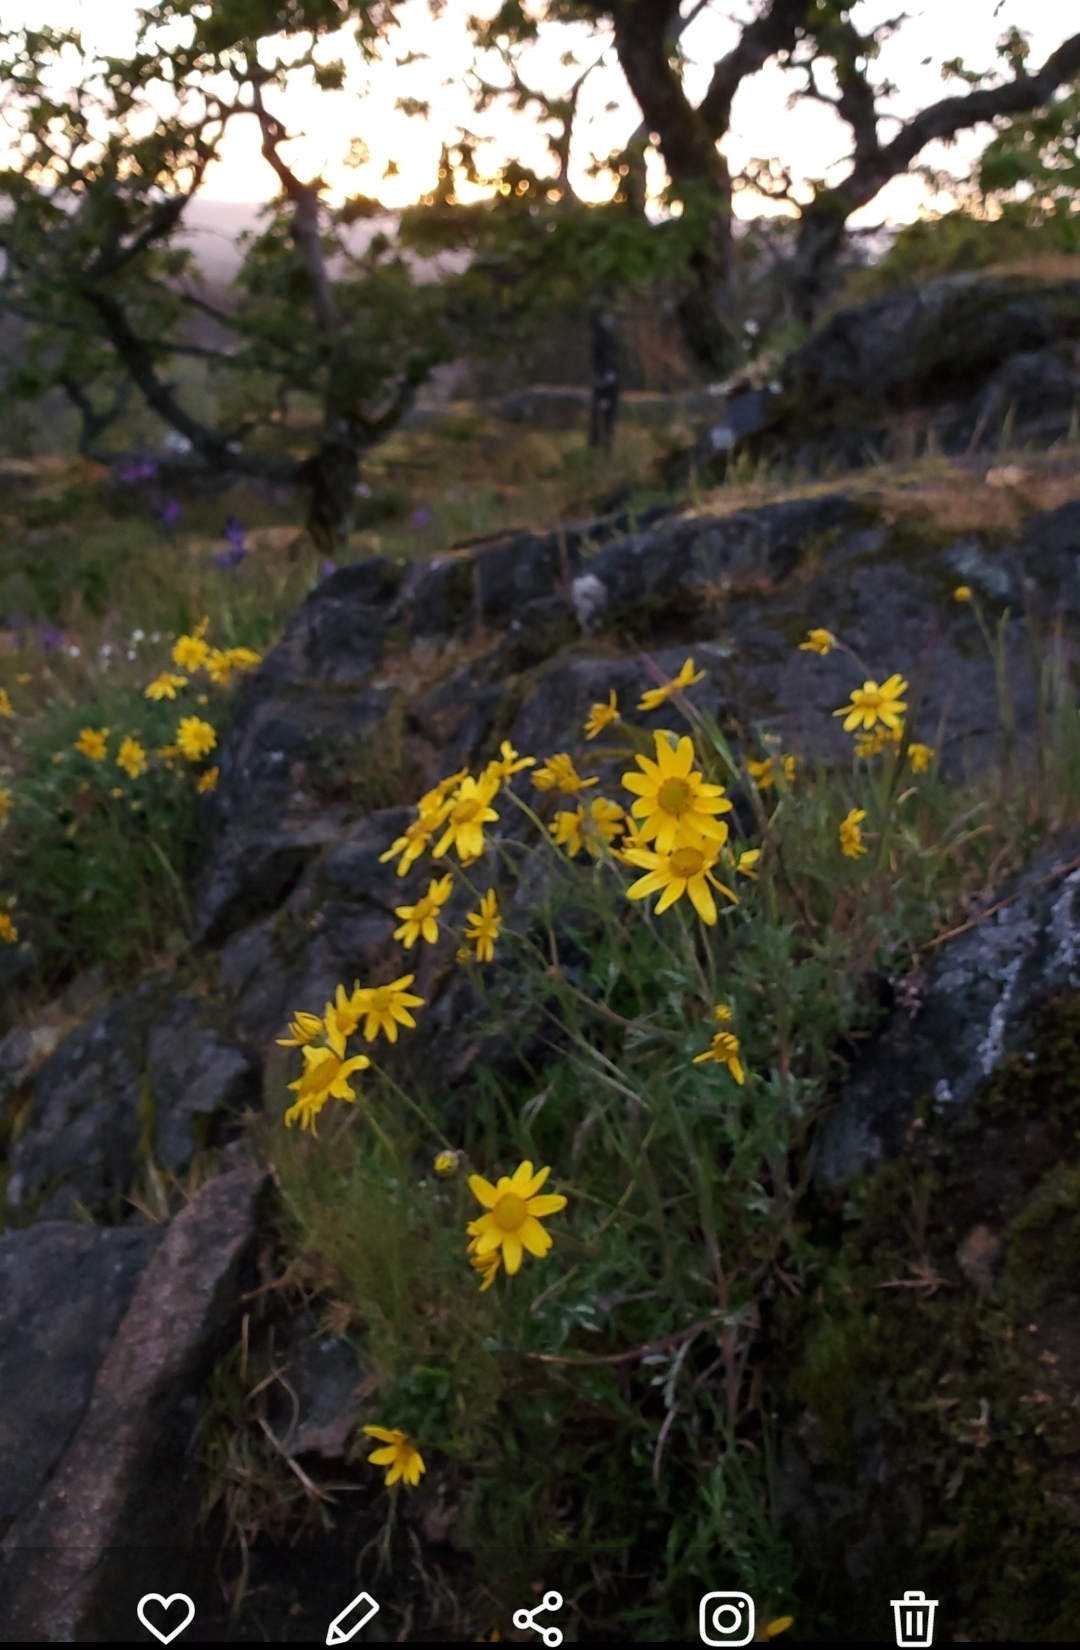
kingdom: Plantae
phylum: Tracheophyta
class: Magnoliopsida
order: Asterales
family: Asteraceae
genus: Eriophyllum
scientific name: Eriophyllum lanatum
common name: Common woolly-sunflower
